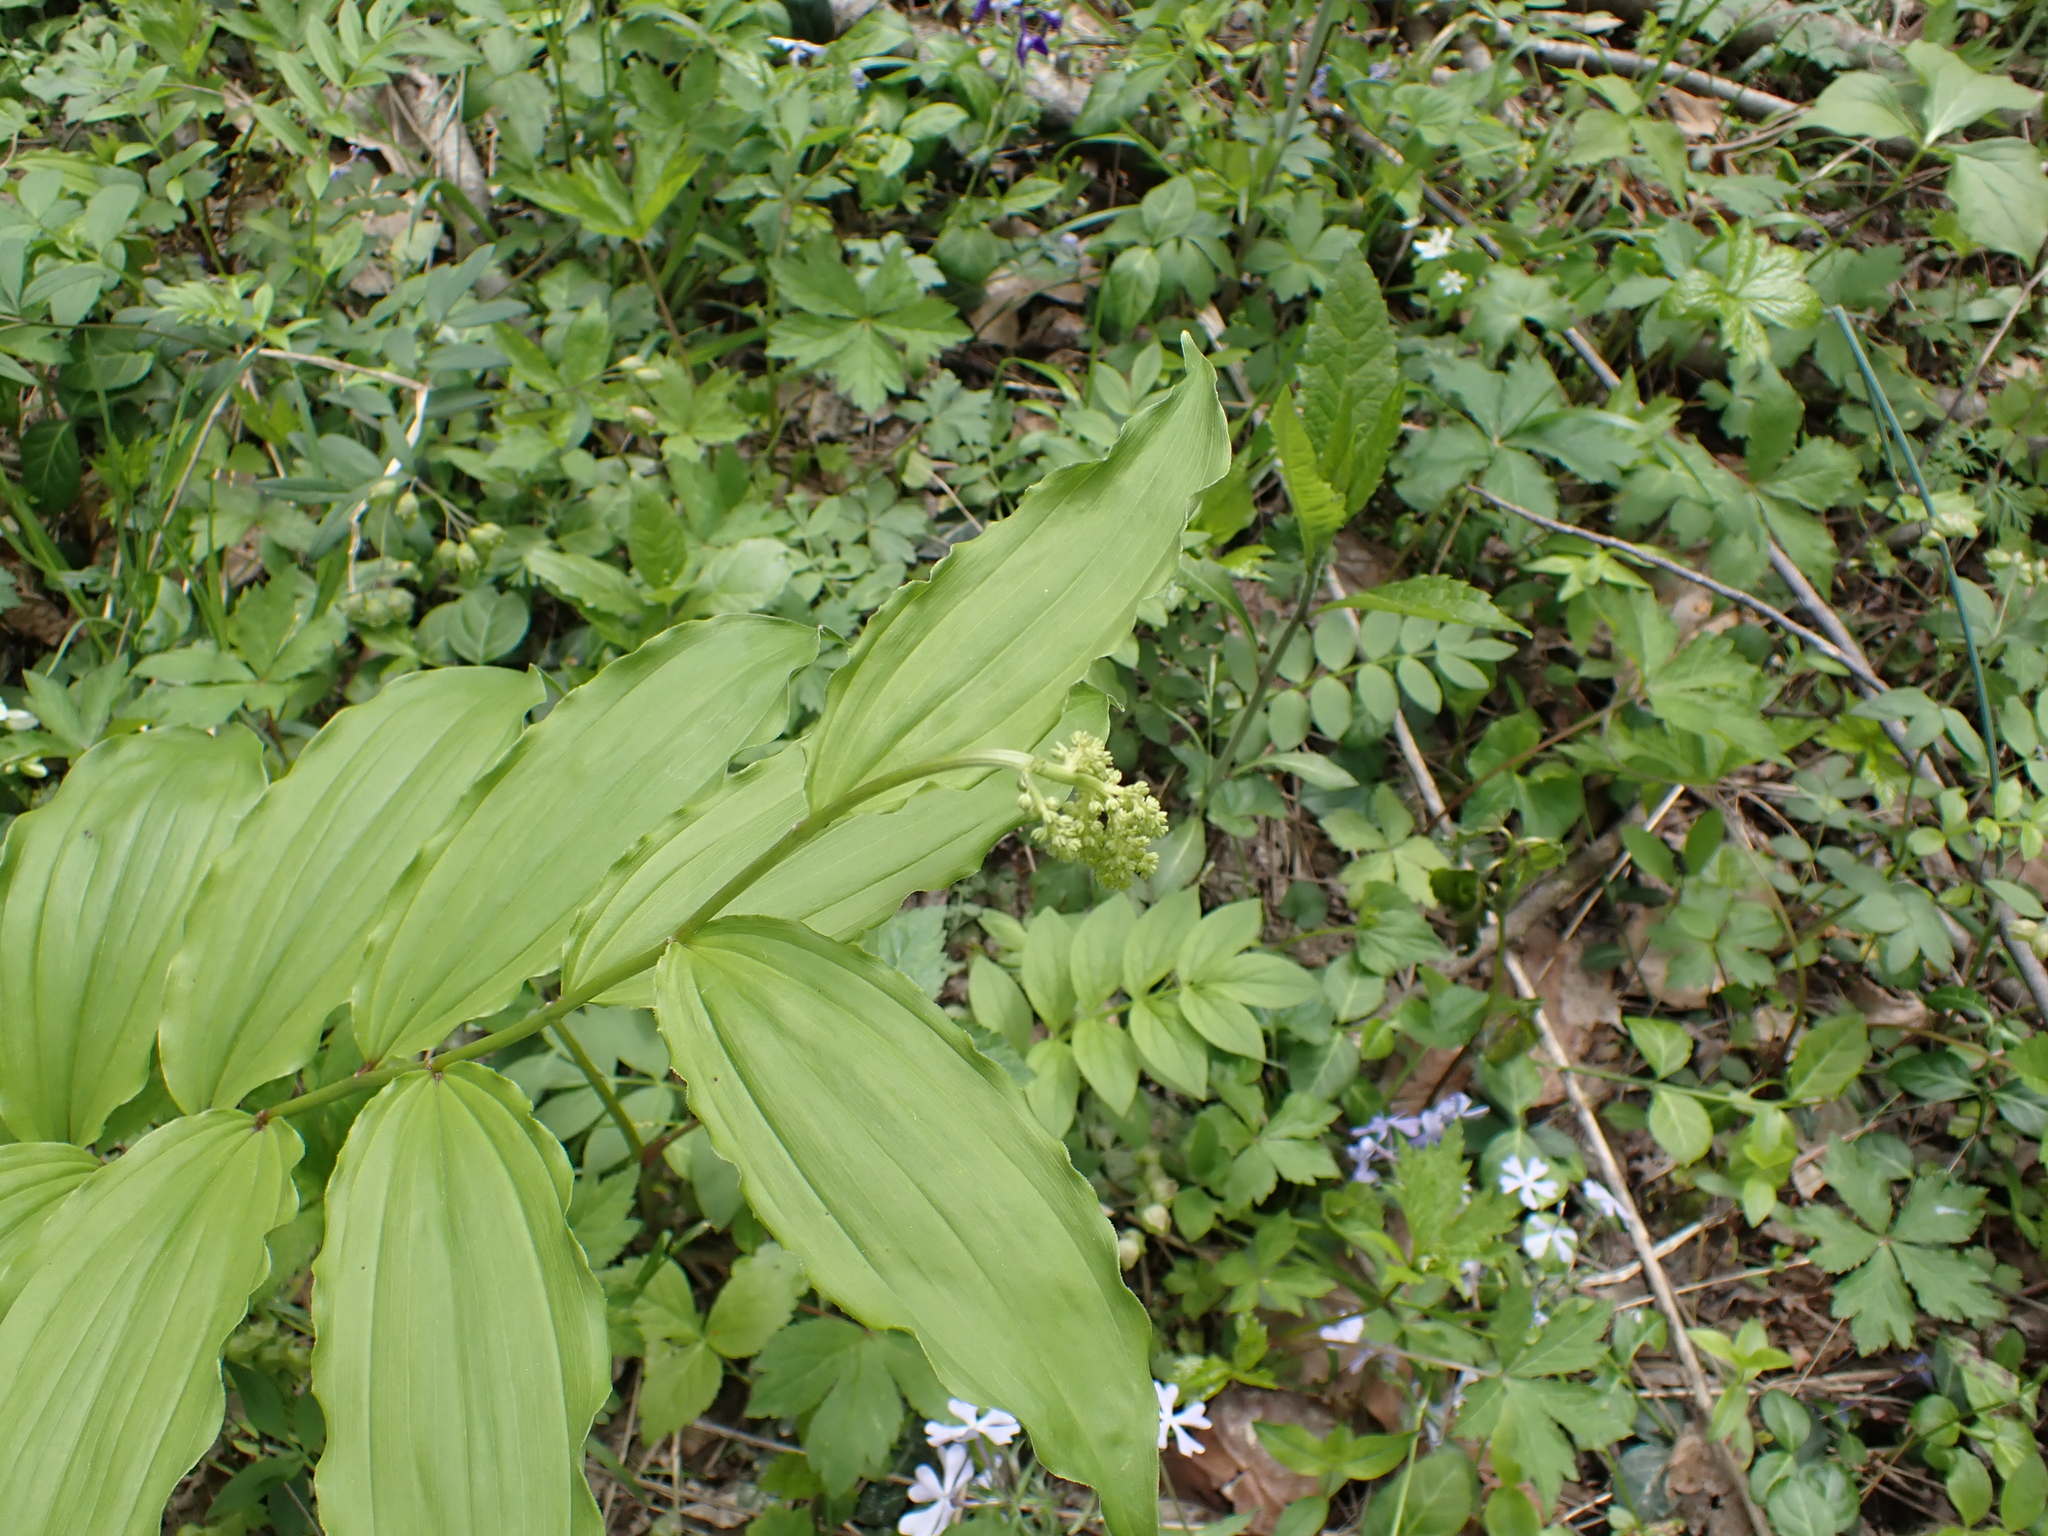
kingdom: Plantae
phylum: Tracheophyta
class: Liliopsida
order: Asparagales
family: Asparagaceae
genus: Maianthemum
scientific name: Maianthemum racemosum
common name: False spikenard
